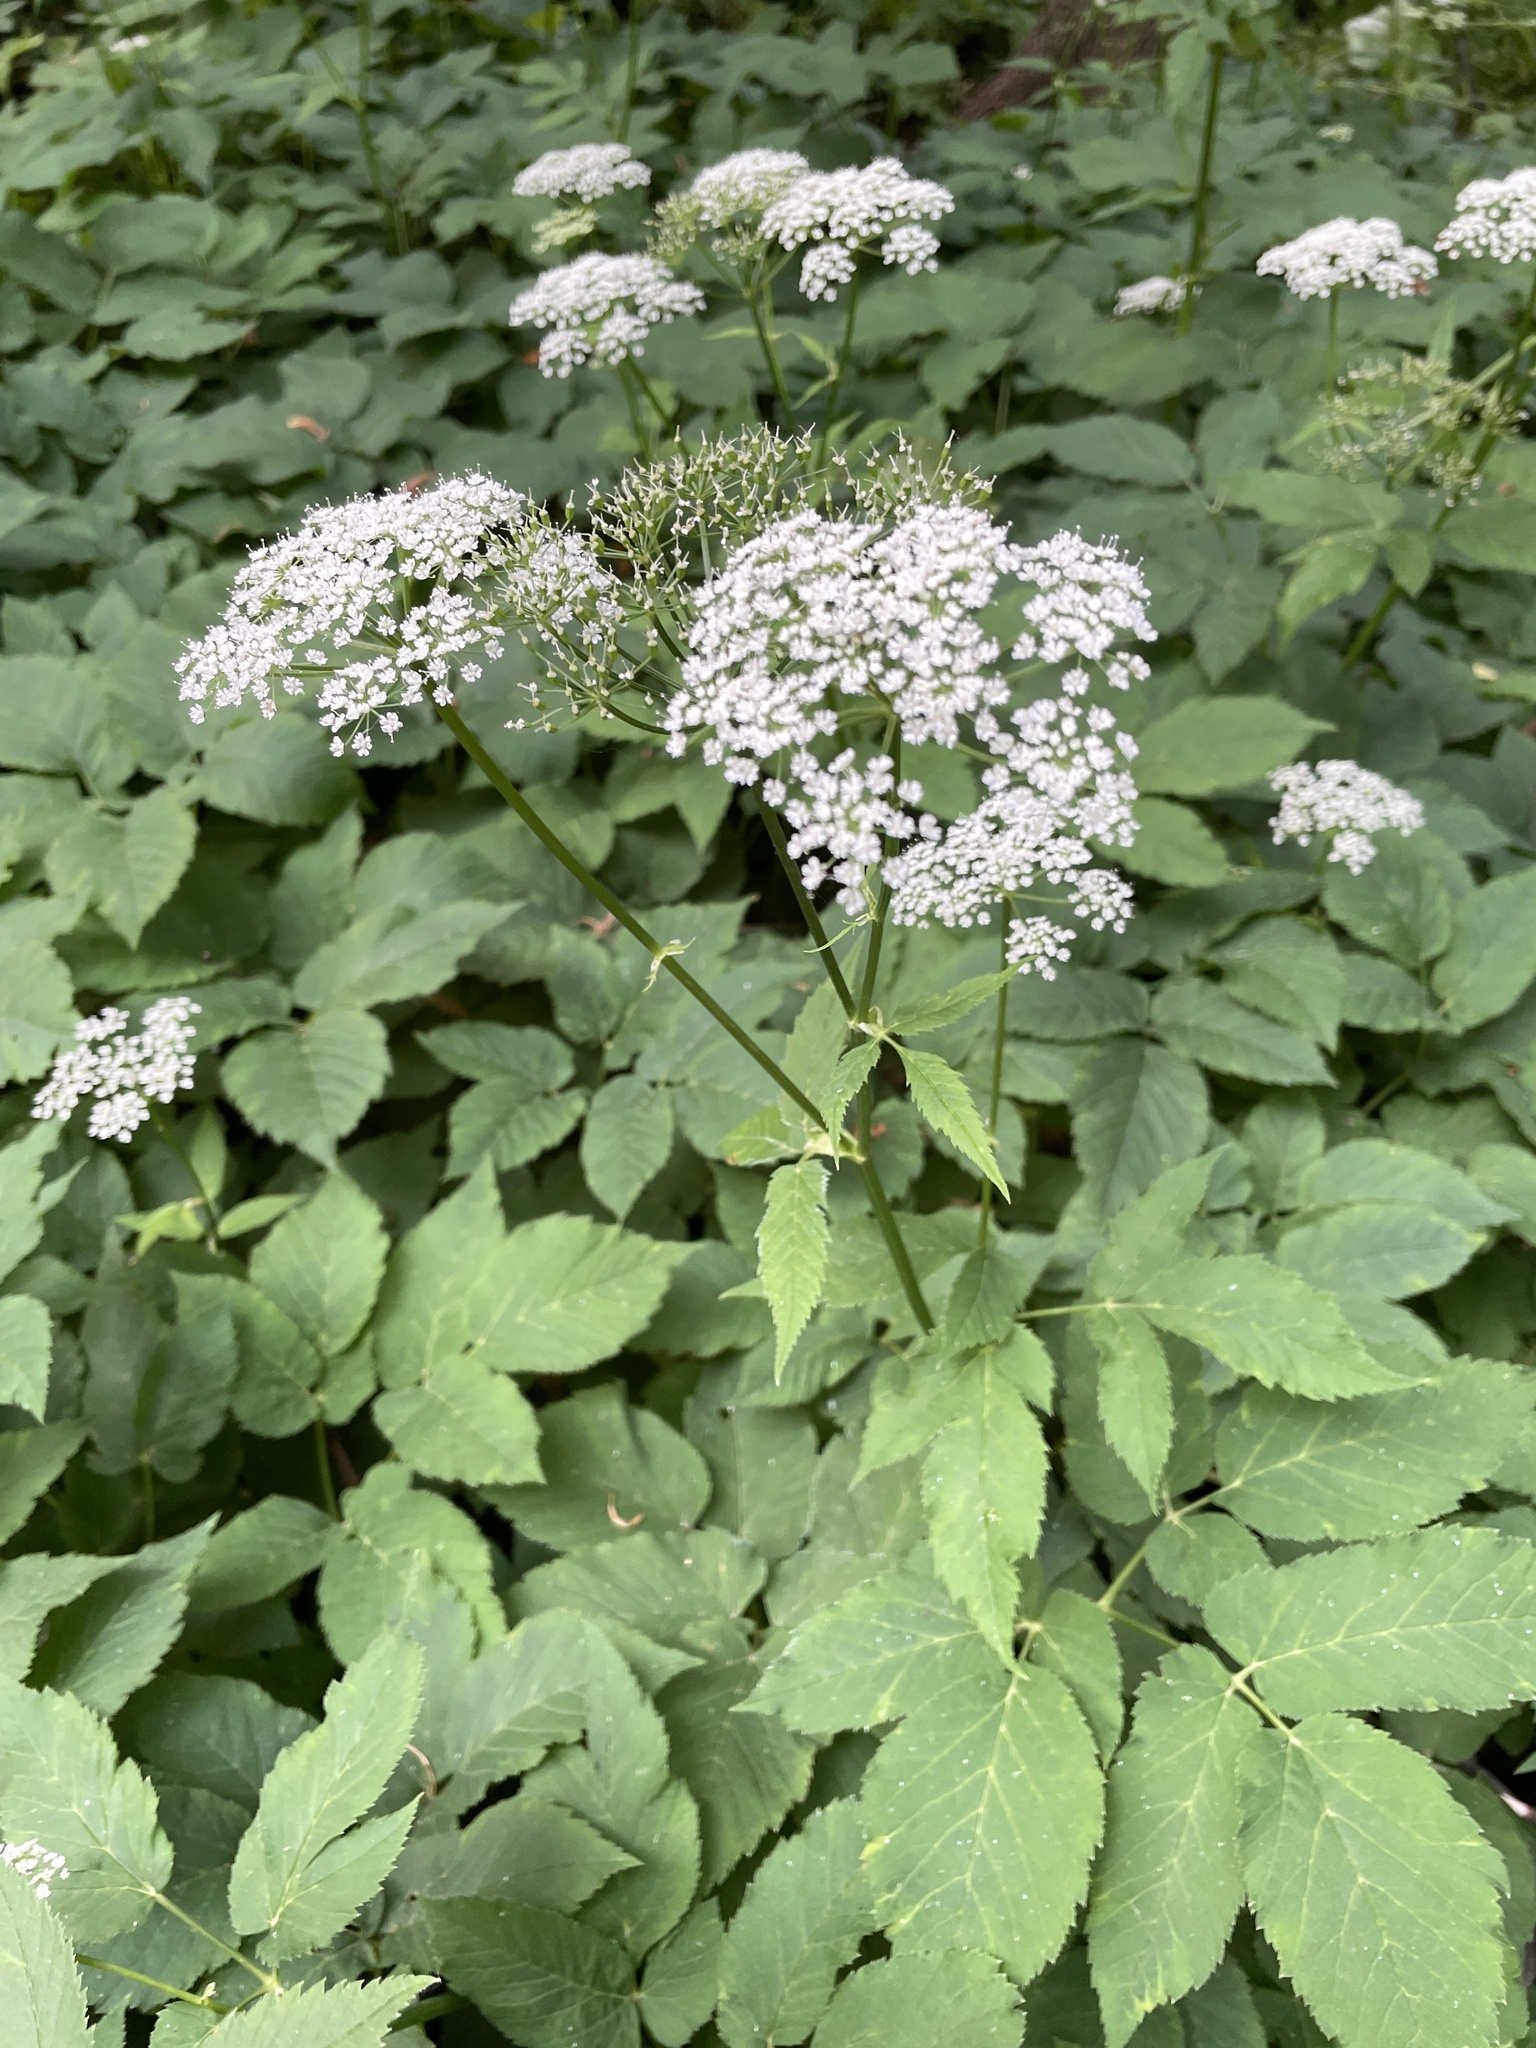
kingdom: Plantae
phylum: Tracheophyta
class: Magnoliopsida
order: Apiales
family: Apiaceae
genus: Aegopodium
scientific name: Aegopodium podagraria
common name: Ground-elder
